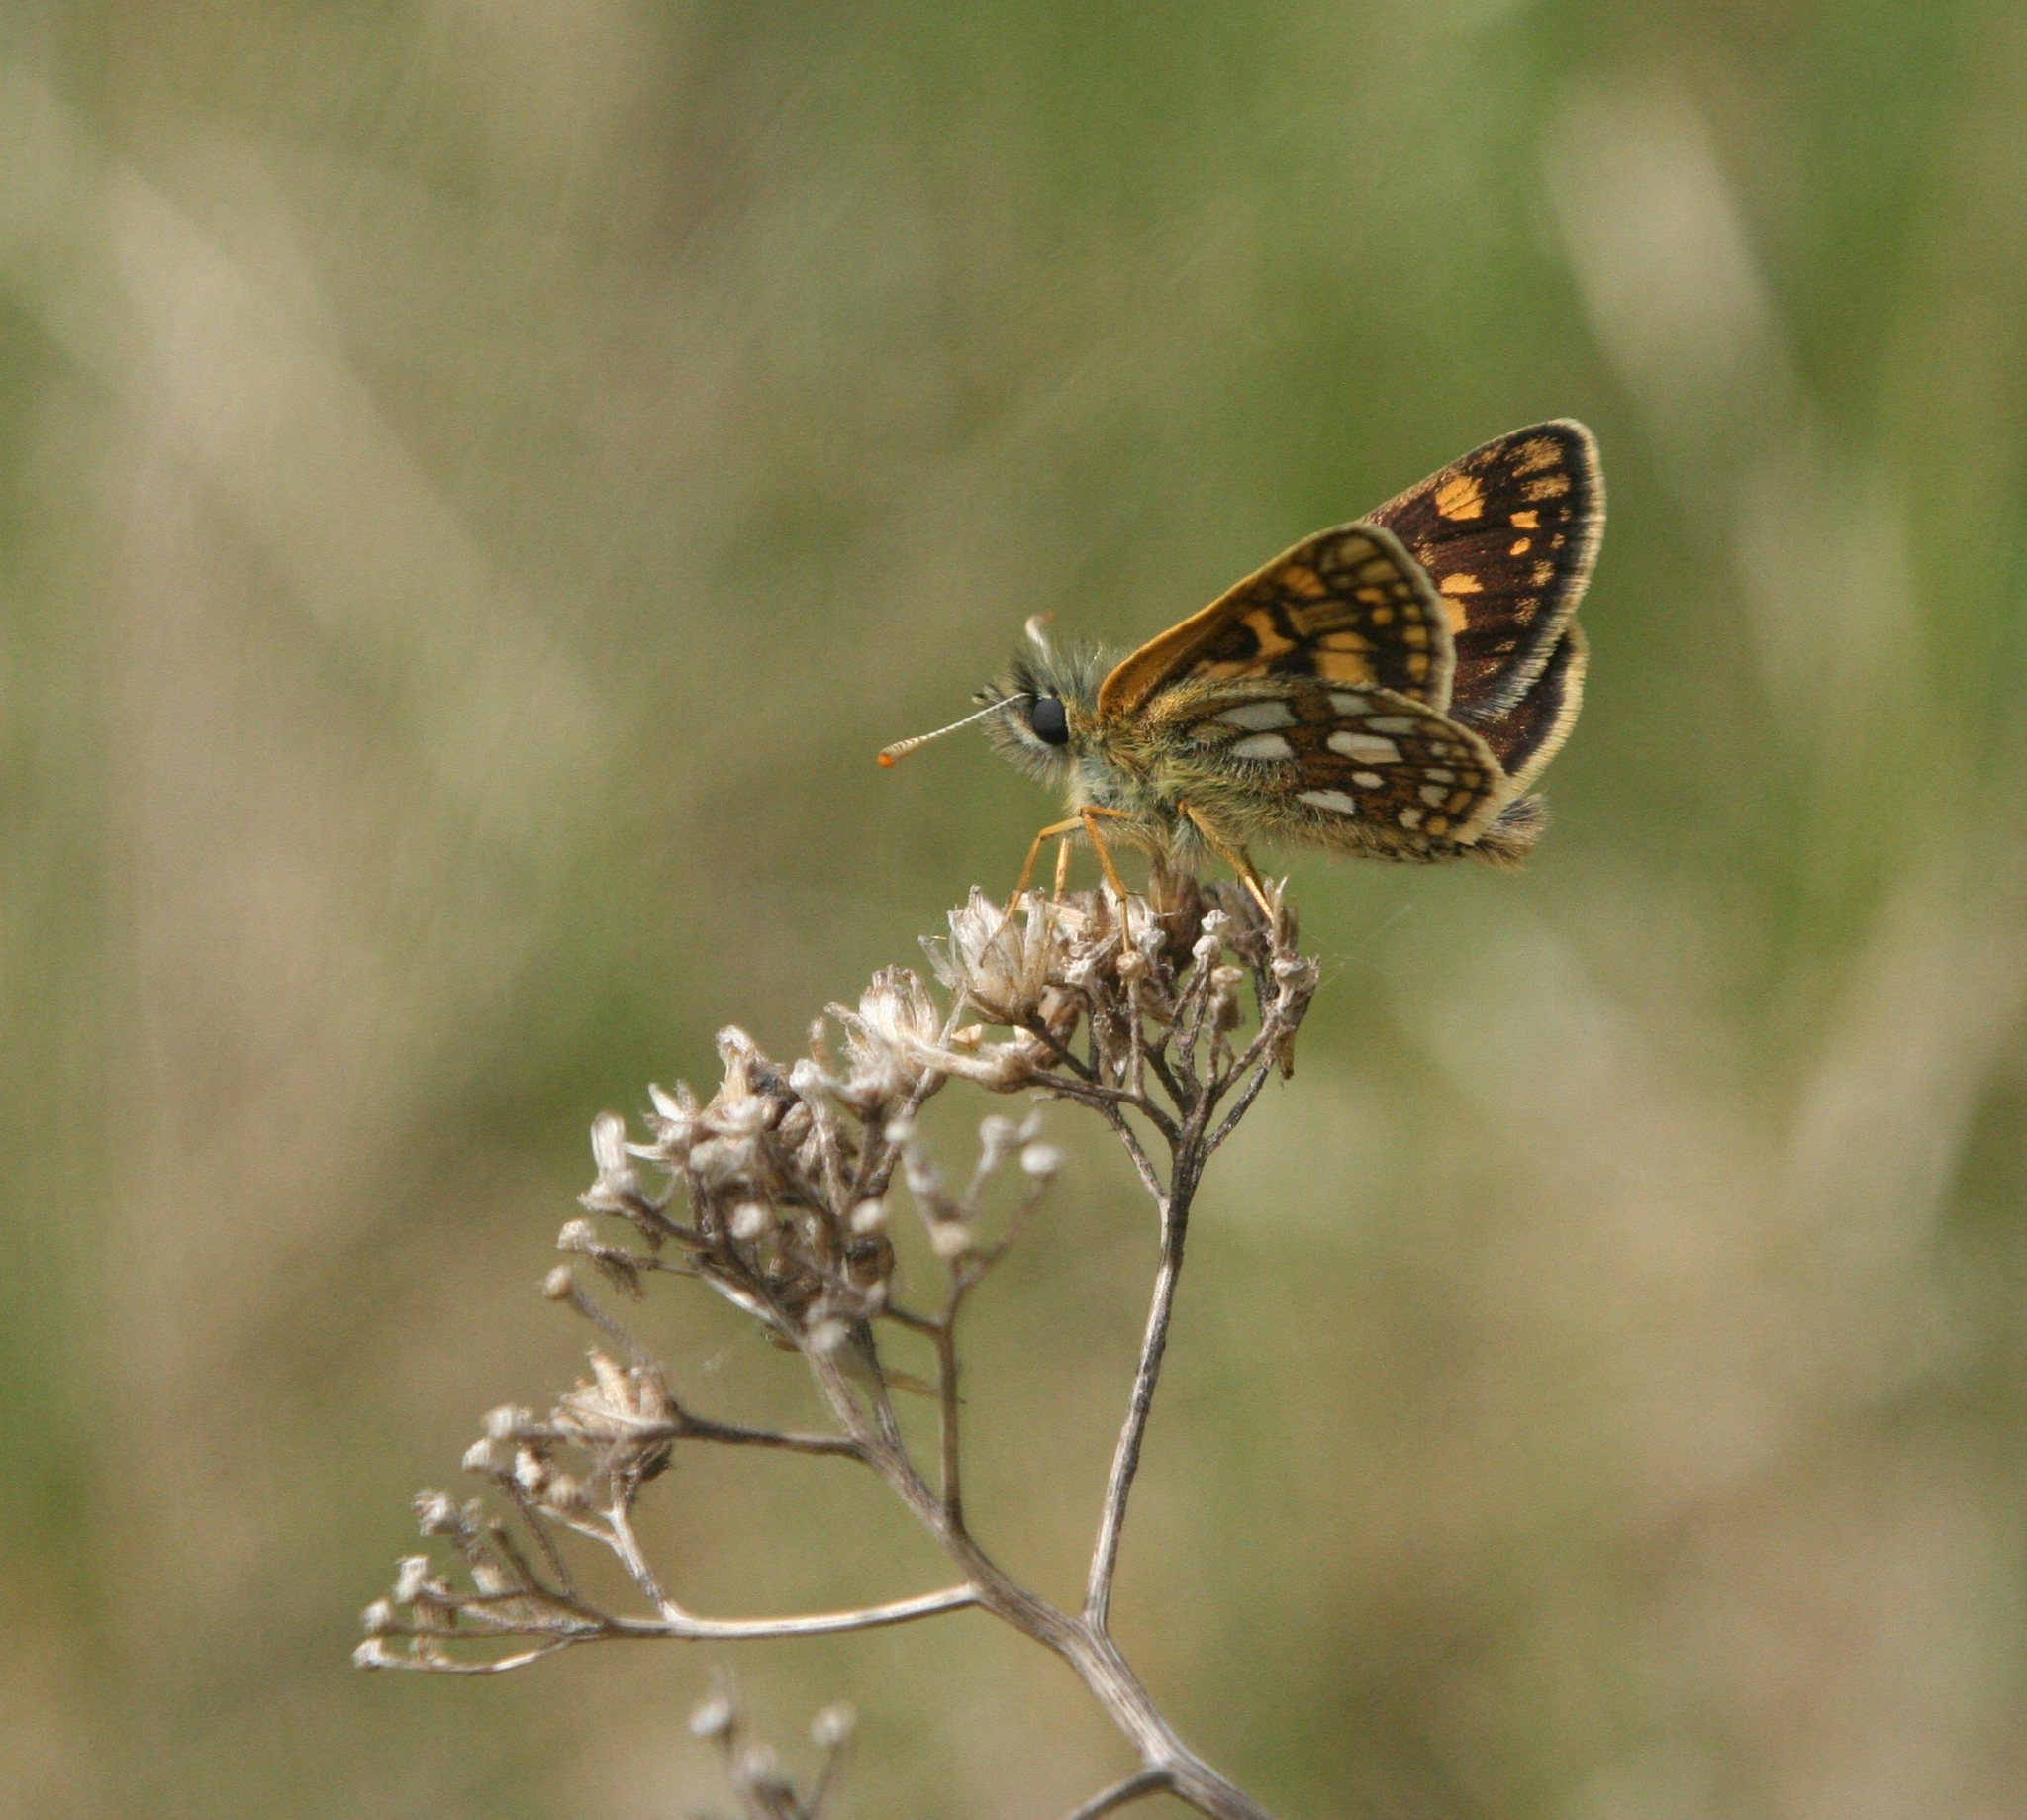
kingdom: Animalia
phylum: Arthropoda
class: Insecta
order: Lepidoptera
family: Hesperiidae
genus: Carterocephalus
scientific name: Carterocephalus palaemon
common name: Chequered skipper
